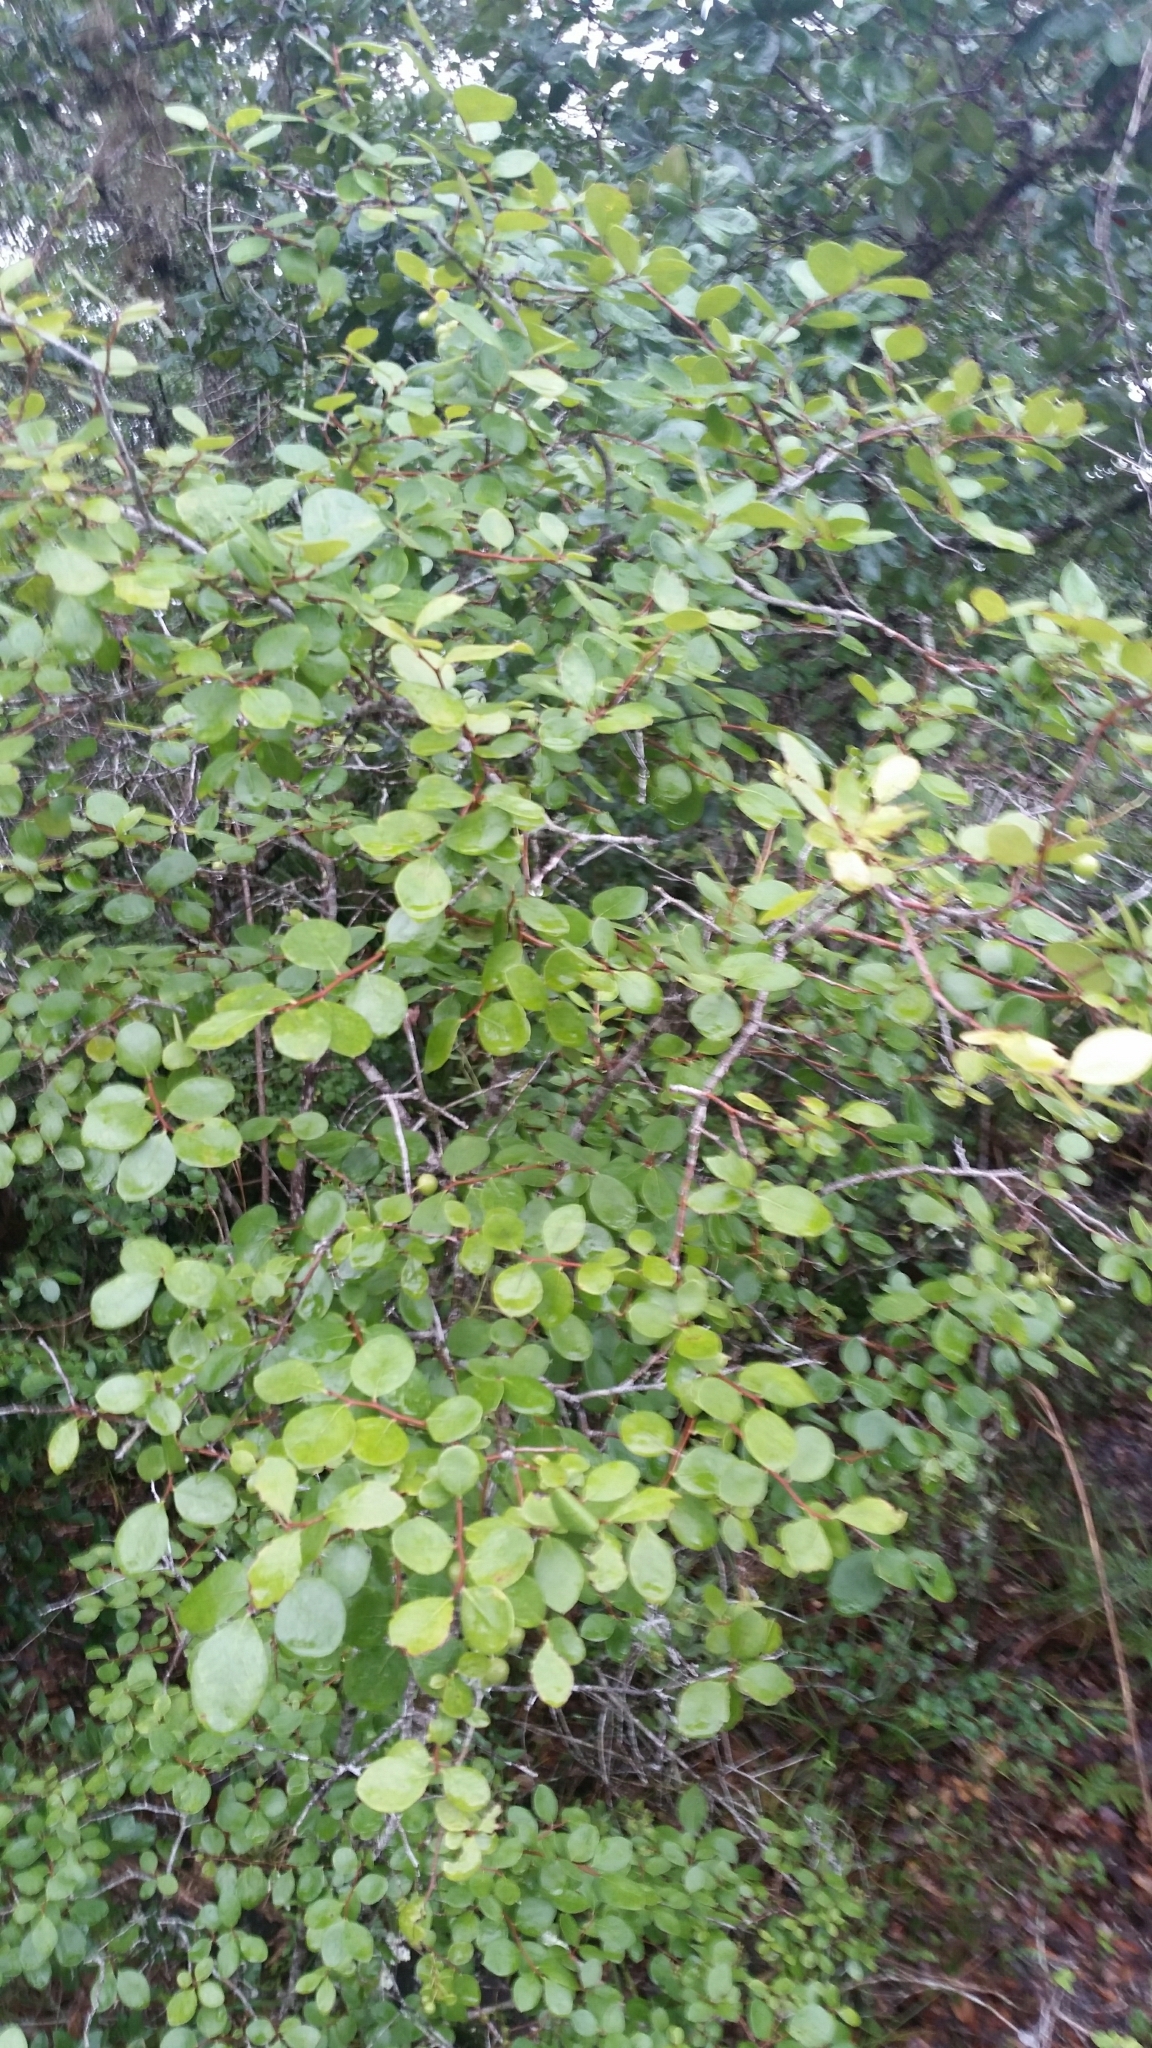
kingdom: Plantae
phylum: Tracheophyta
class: Magnoliopsida
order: Ericales
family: Ericaceae
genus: Vaccinium
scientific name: Vaccinium arboreum
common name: Farkleberry
